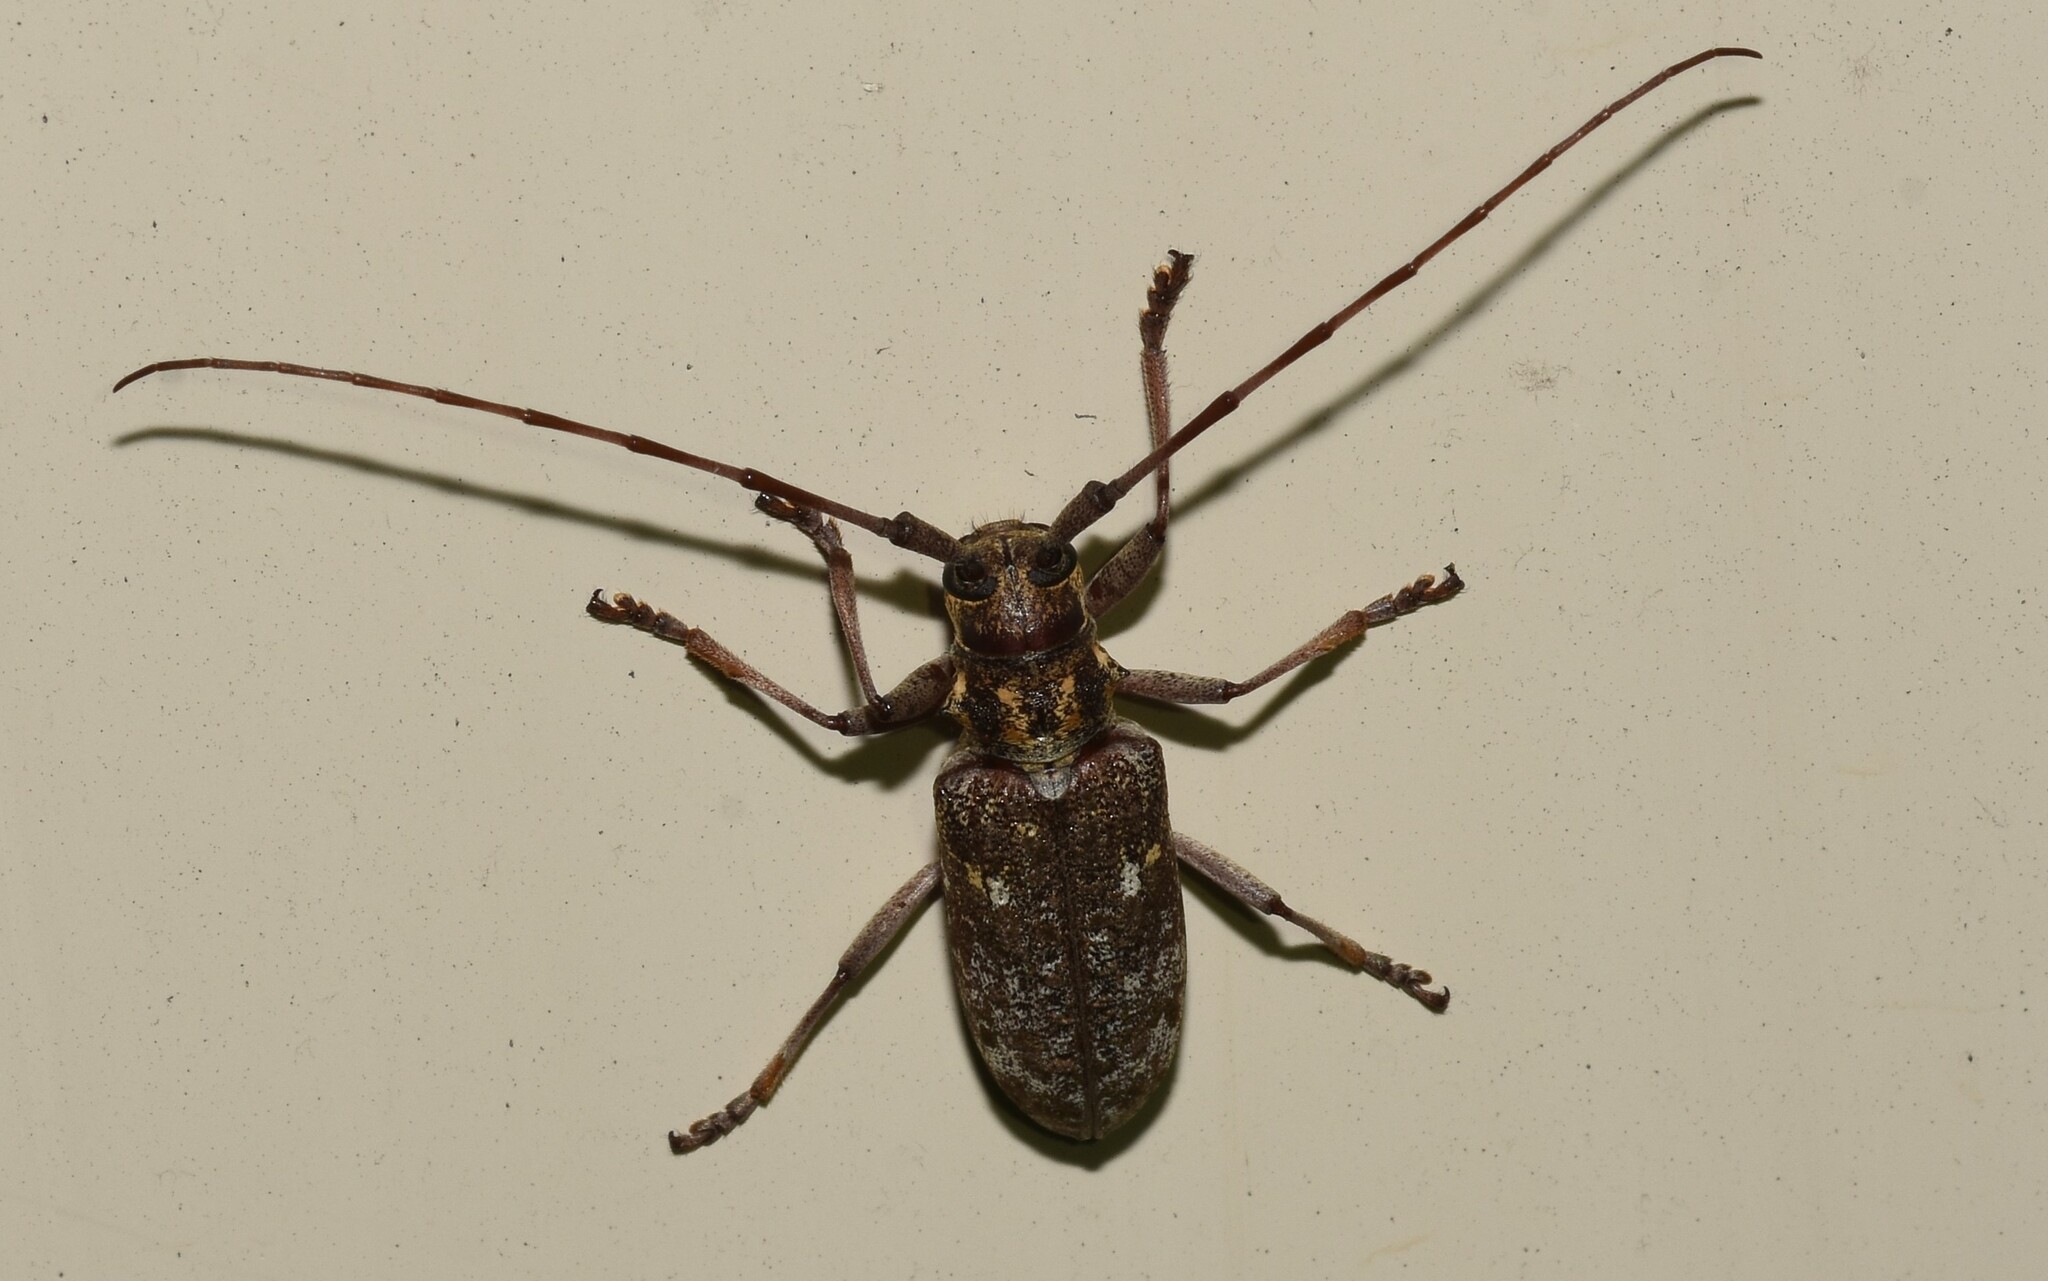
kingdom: Animalia
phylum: Arthropoda
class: Insecta
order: Coleoptera
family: Cerambycidae
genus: Monochamus
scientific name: Monochamus carolinensis
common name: Carolina pine sawyer
